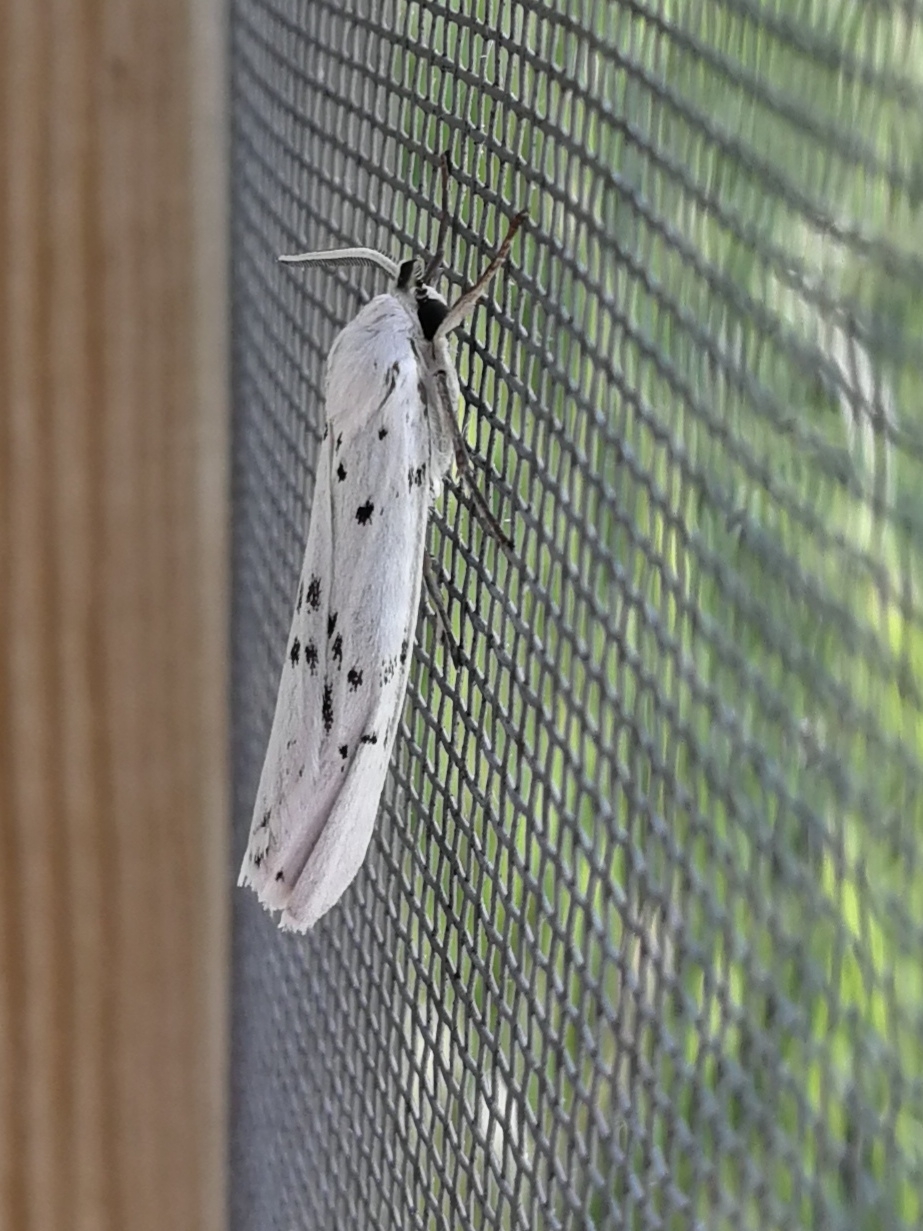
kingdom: Animalia
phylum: Arthropoda
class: Insecta
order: Lepidoptera
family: Erebidae
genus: Coscinia
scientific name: Coscinia cribraria
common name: Speckled footman
